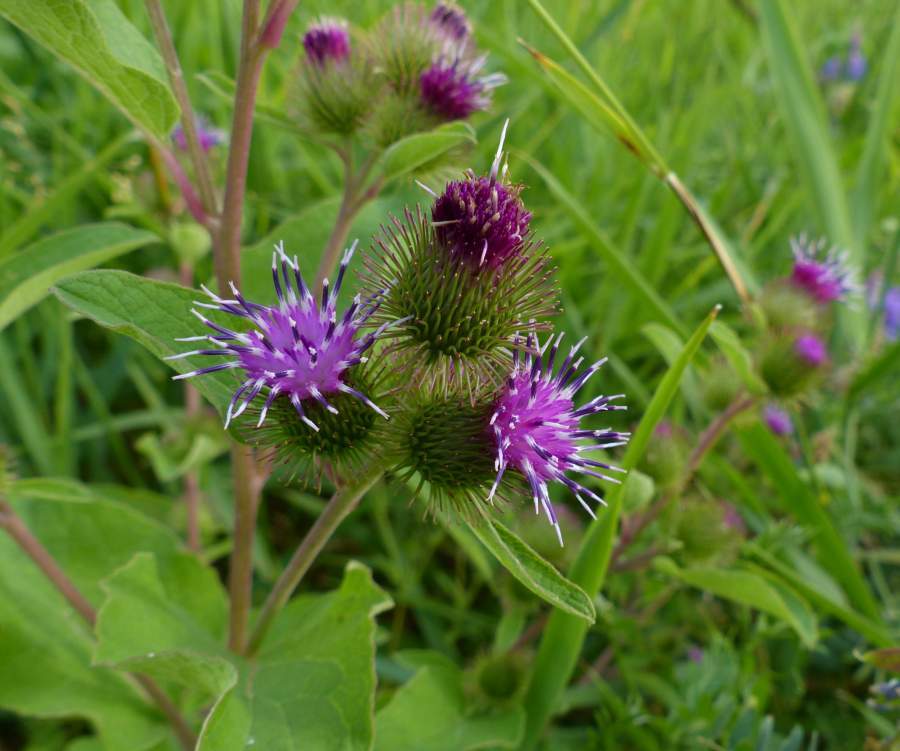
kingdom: Plantae
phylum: Tracheophyta
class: Magnoliopsida
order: Asterales
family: Asteraceae
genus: Arctium
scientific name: Arctium minus
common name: Lesser burdock
